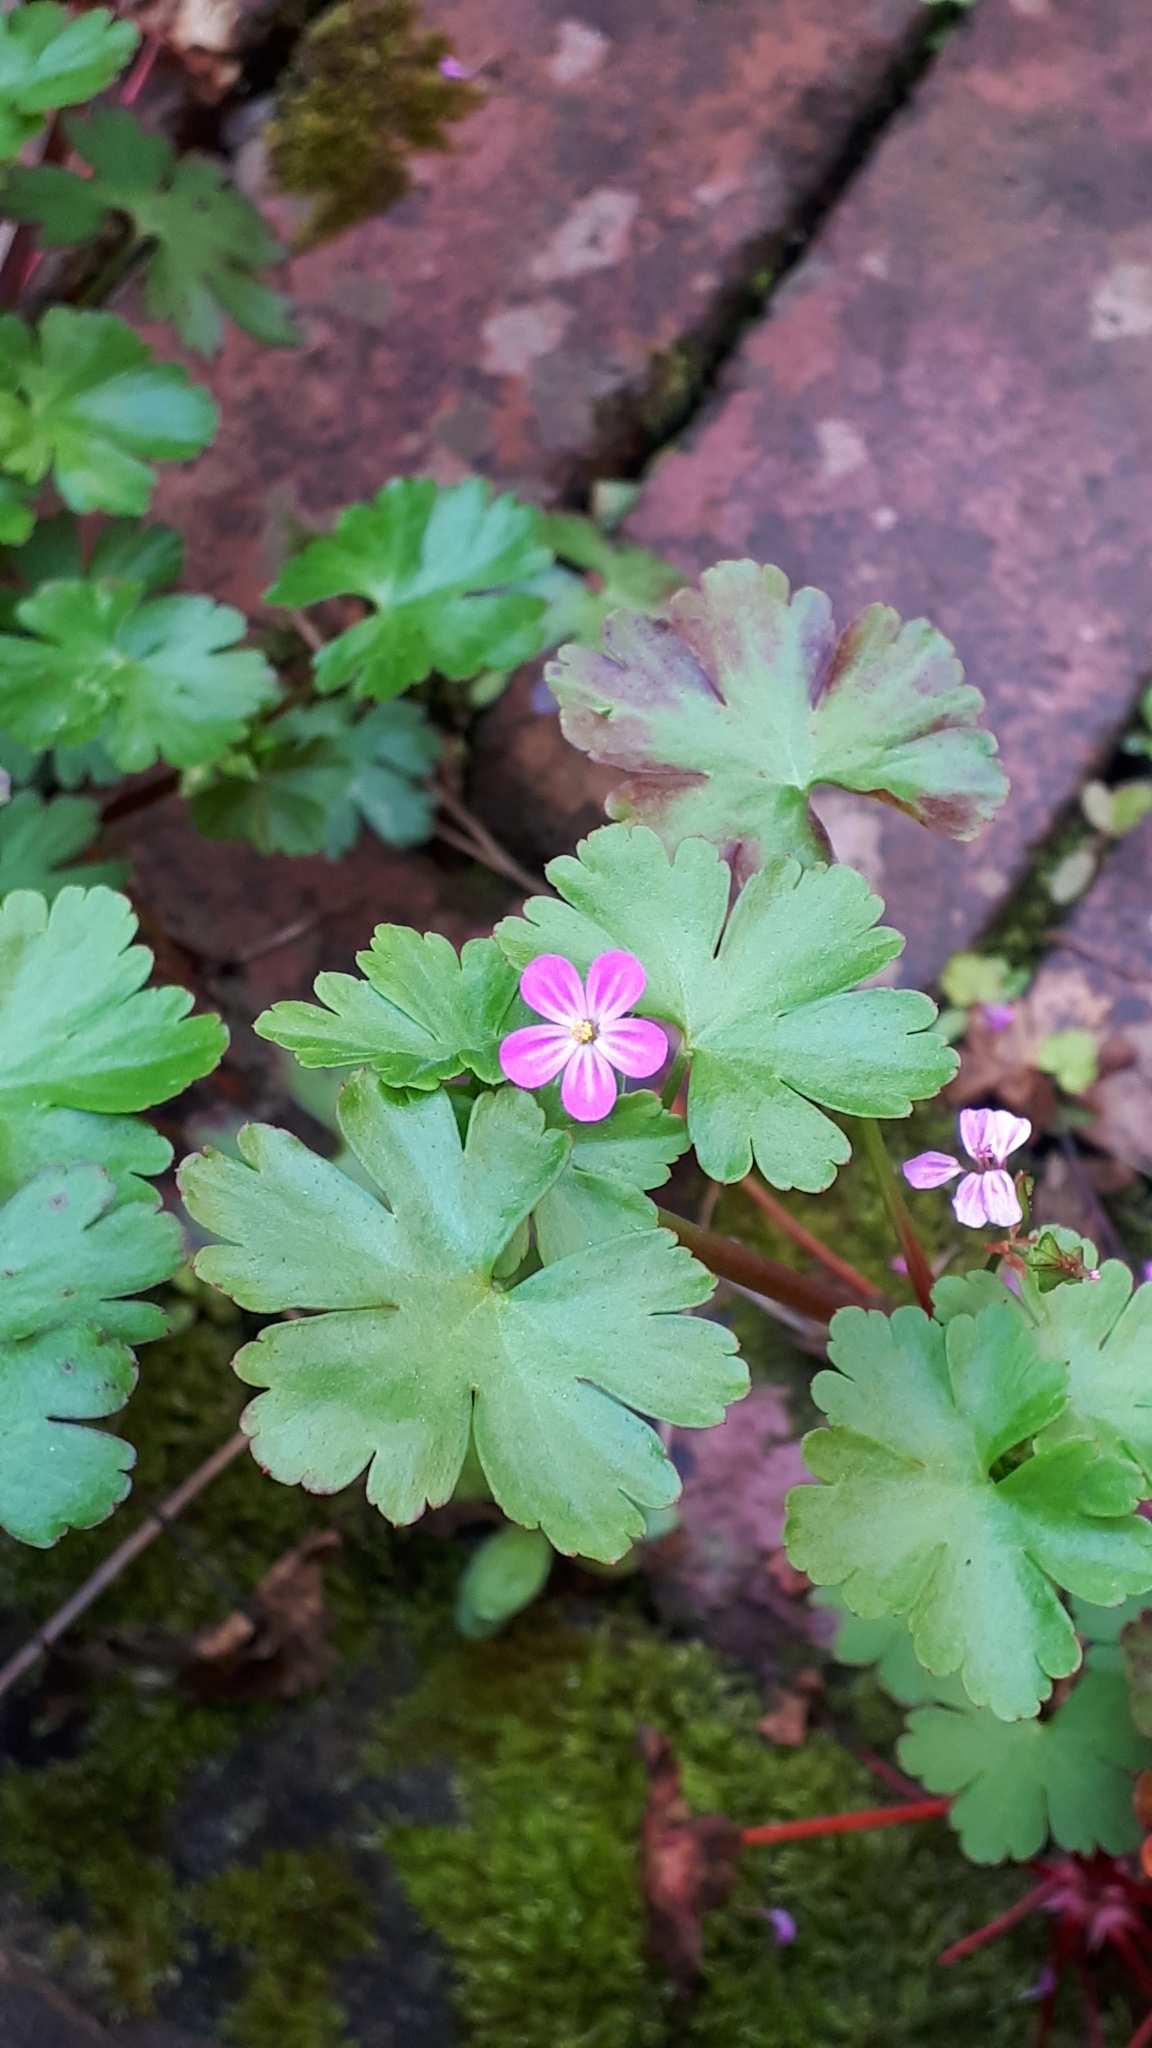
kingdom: Plantae
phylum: Tracheophyta
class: Magnoliopsida
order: Geraniales
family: Geraniaceae
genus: Geranium
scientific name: Geranium lucidum
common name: Shining crane's-bill
